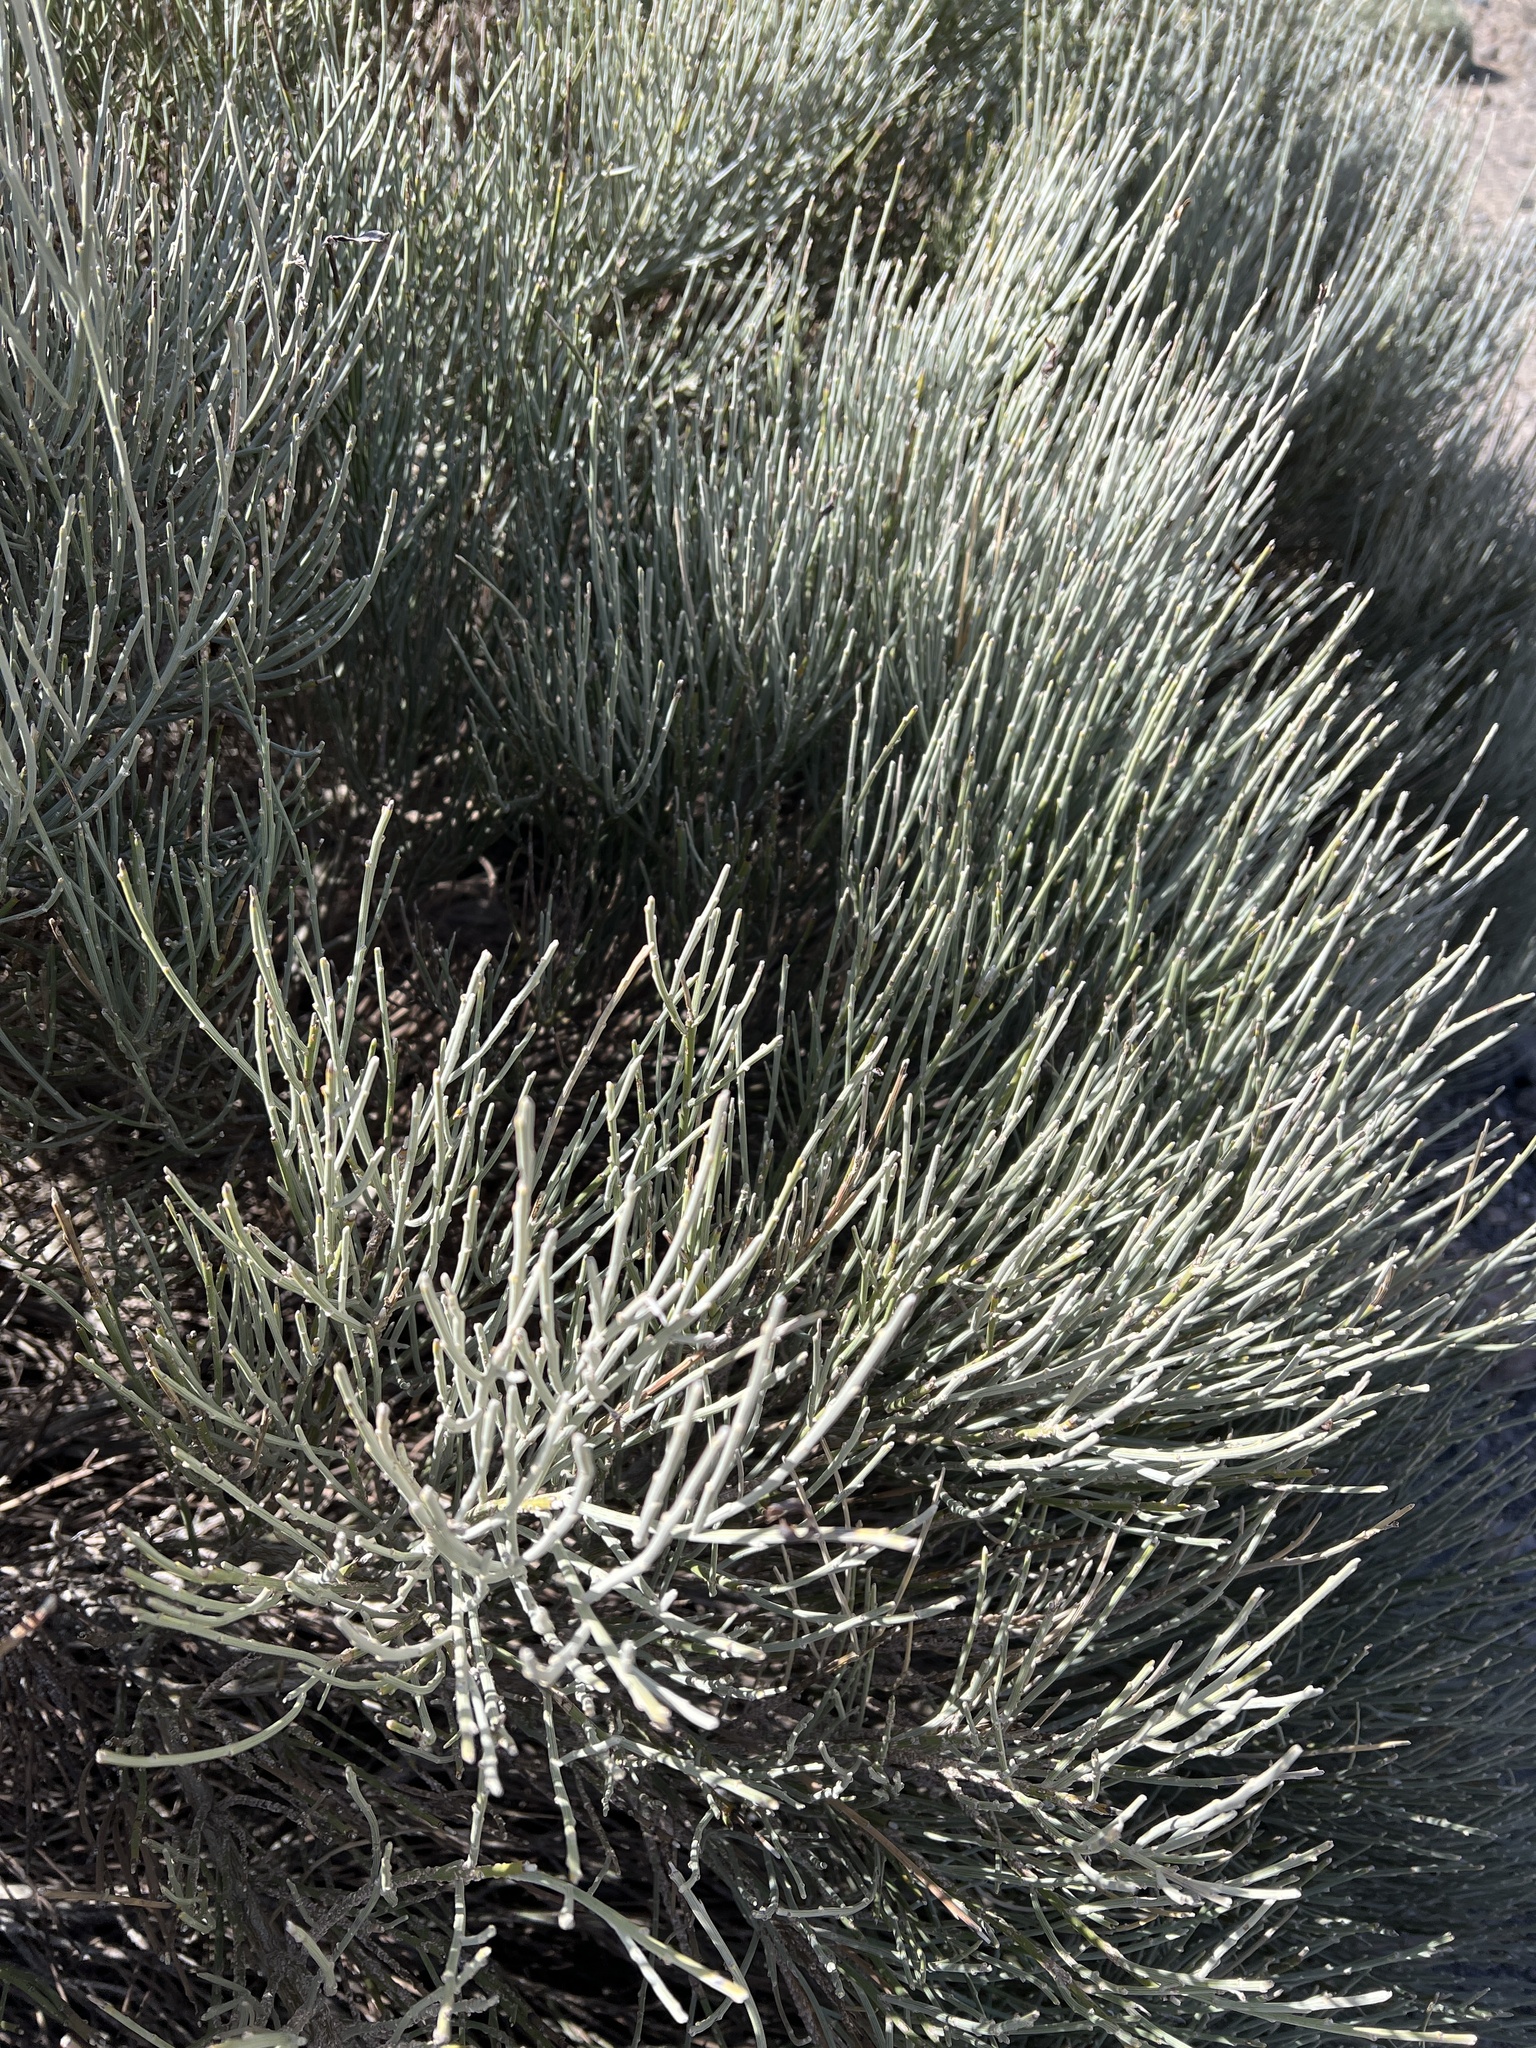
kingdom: Plantae
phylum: Tracheophyta
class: Magnoliopsida
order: Fabales
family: Fabaceae
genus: Cytisus
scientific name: Cytisus supranubius
